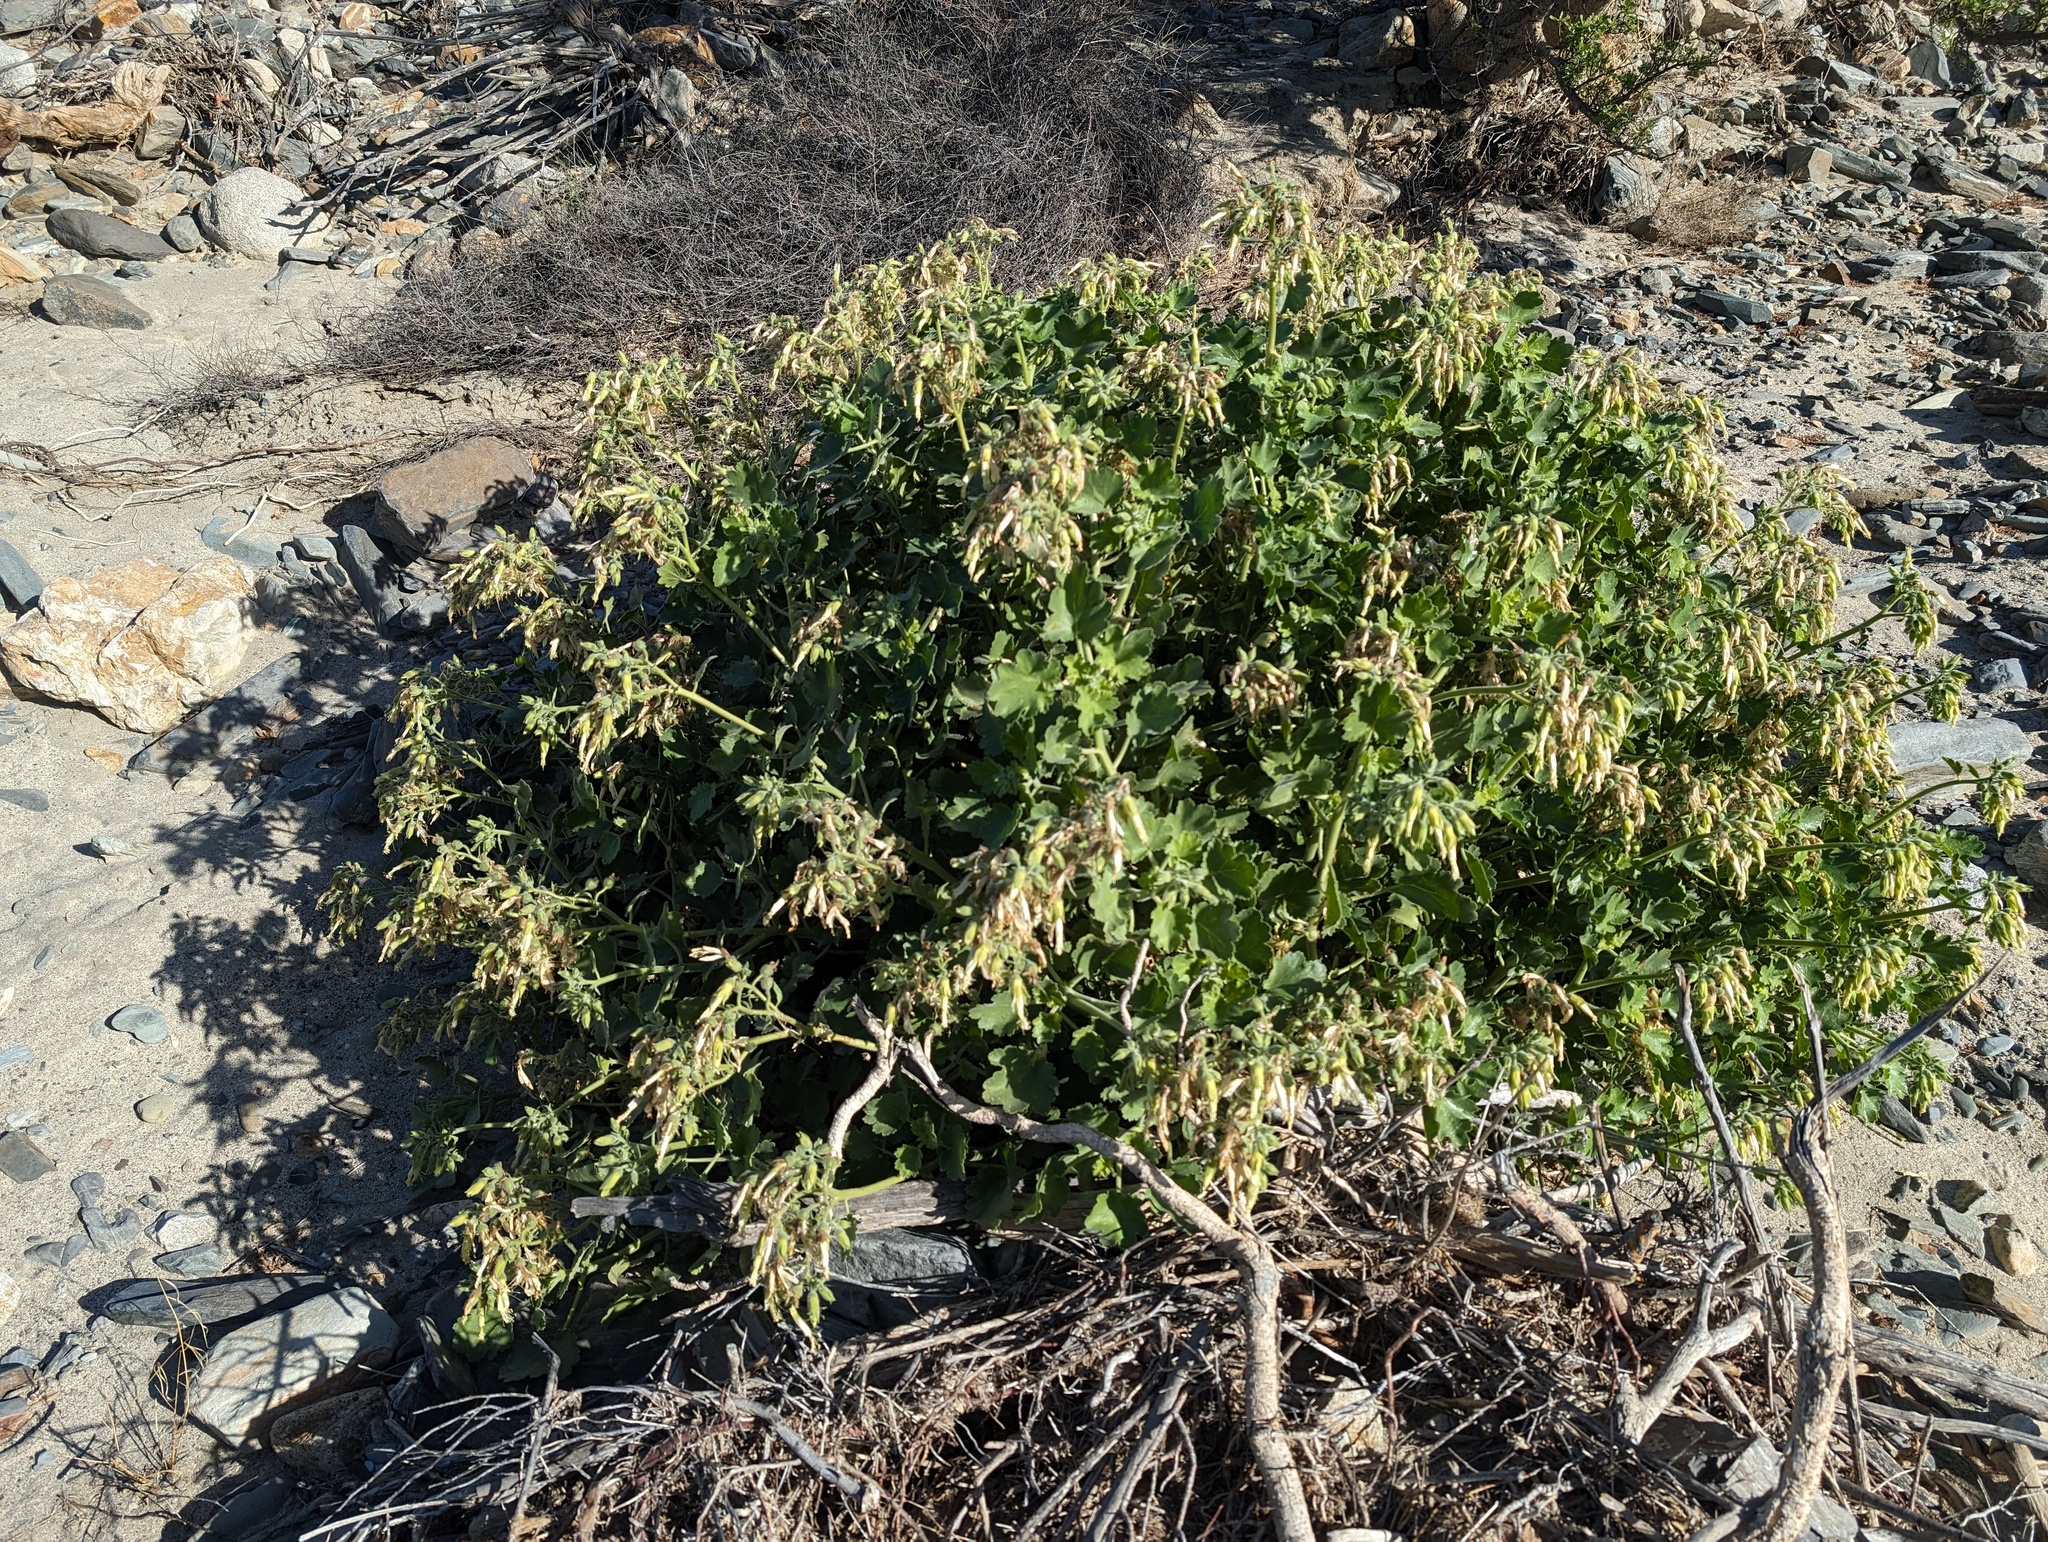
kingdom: Plantae
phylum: Tracheophyta
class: Magnoliopsida
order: Cornales
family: Loasaceae
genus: Eucnide
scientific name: Eucnide cordata
